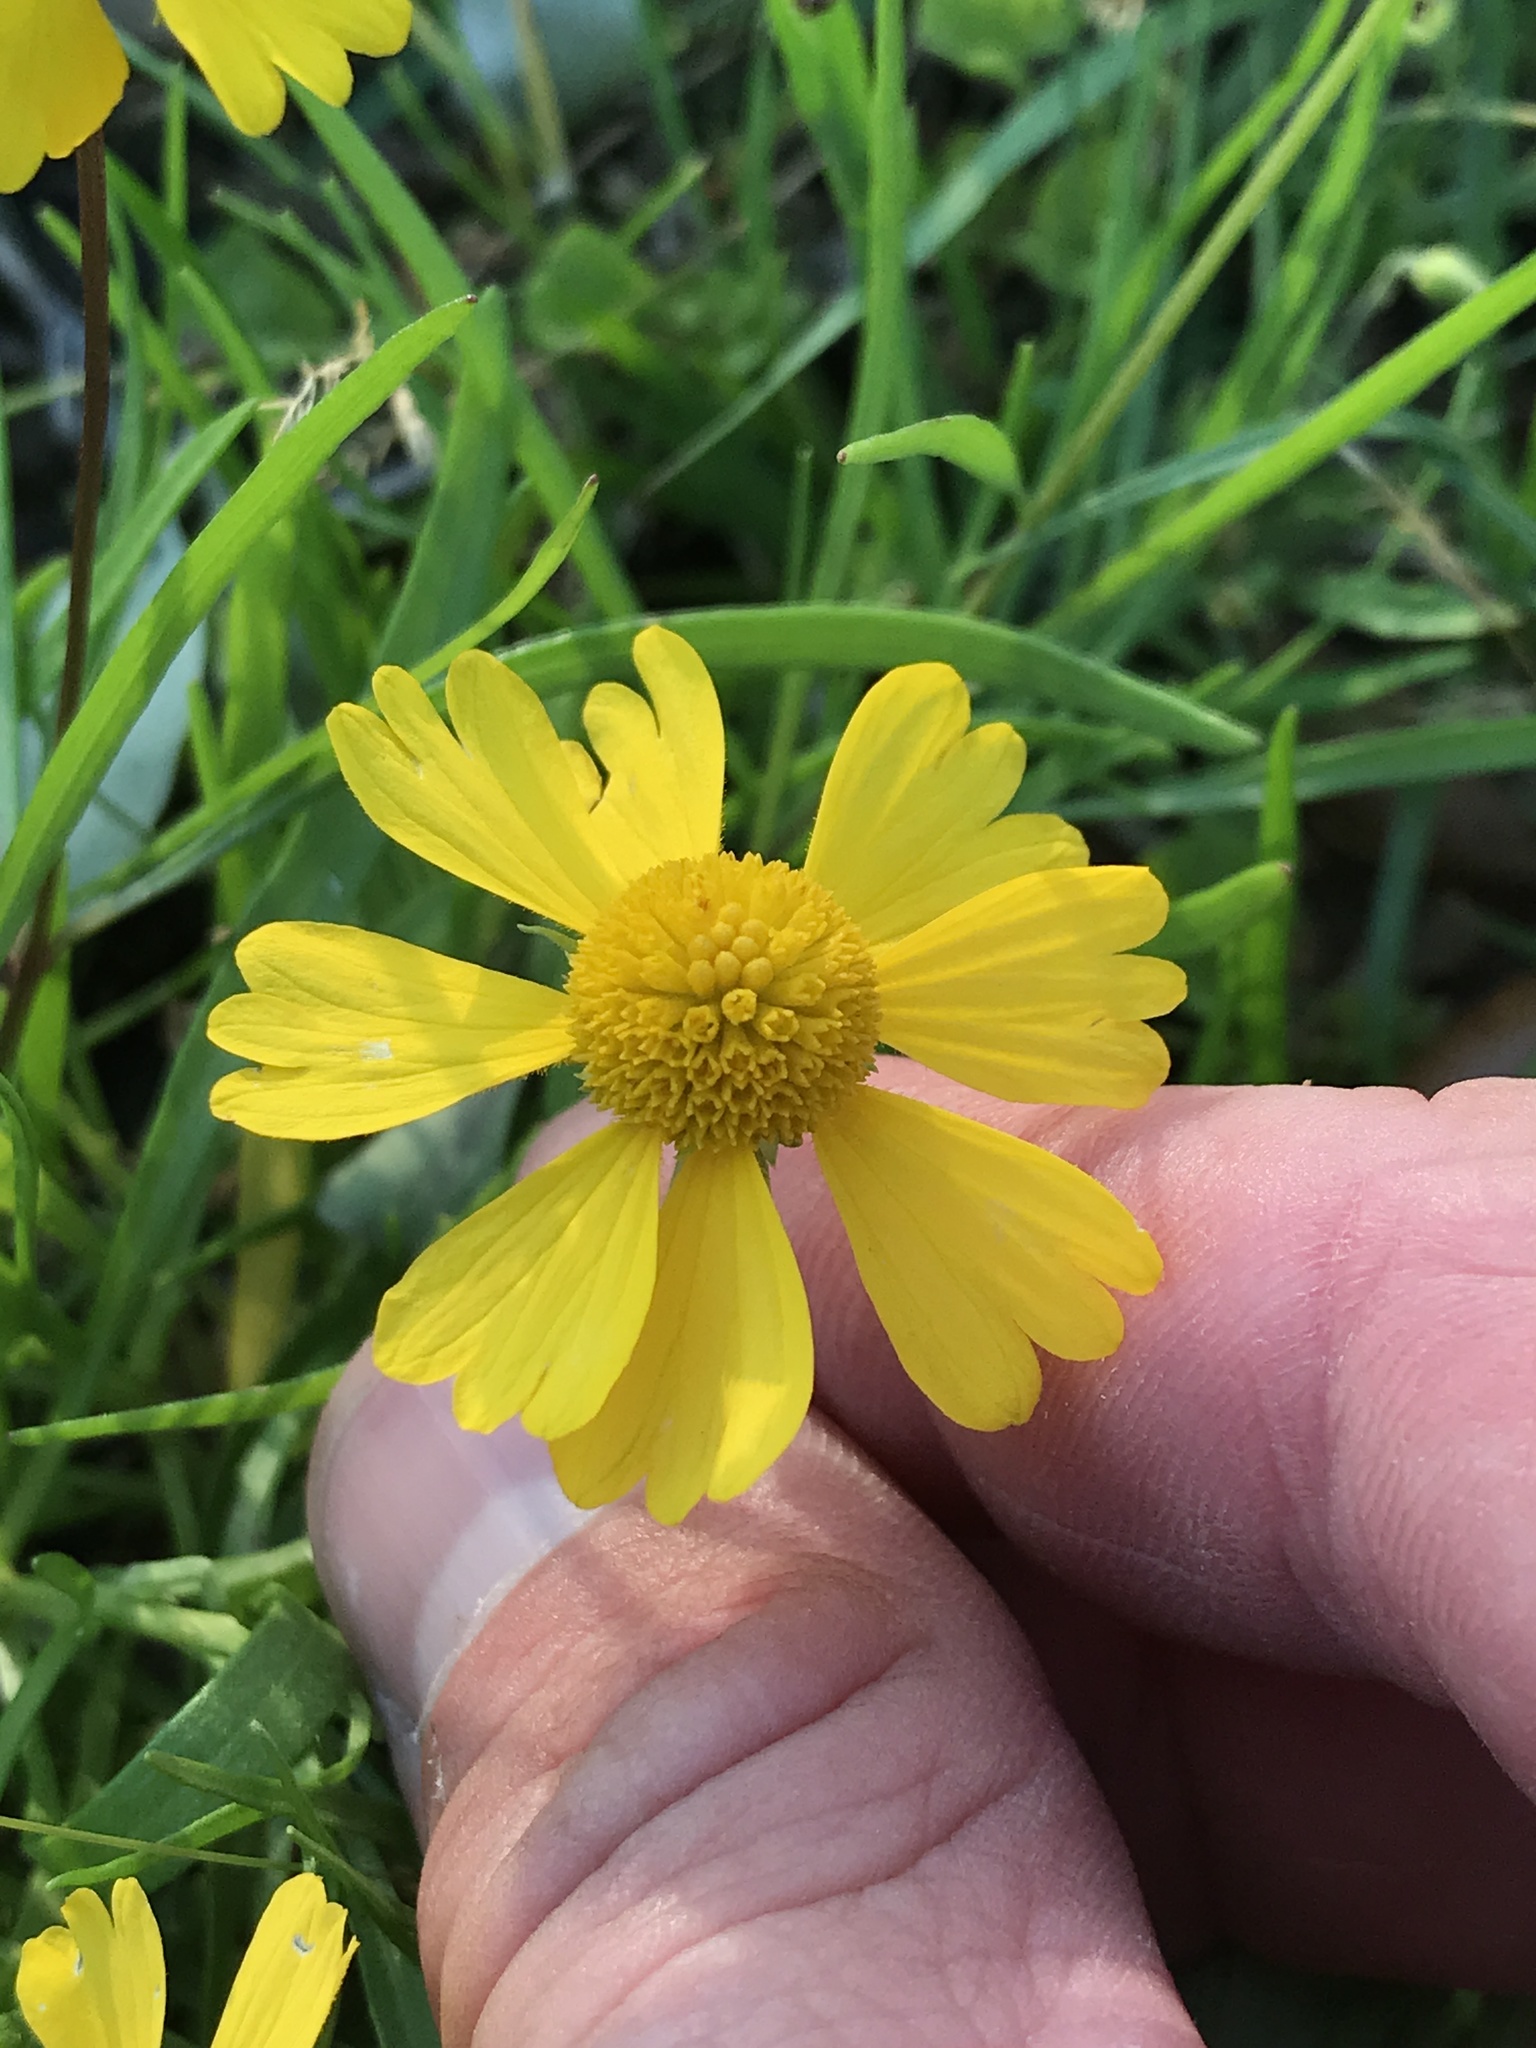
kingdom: Plantae
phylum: Tracheophyta
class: Magnoliopsida
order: Asterales
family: Asteraceae
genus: Helenium
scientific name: Helenium amarum
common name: Bitter sneezeweed
